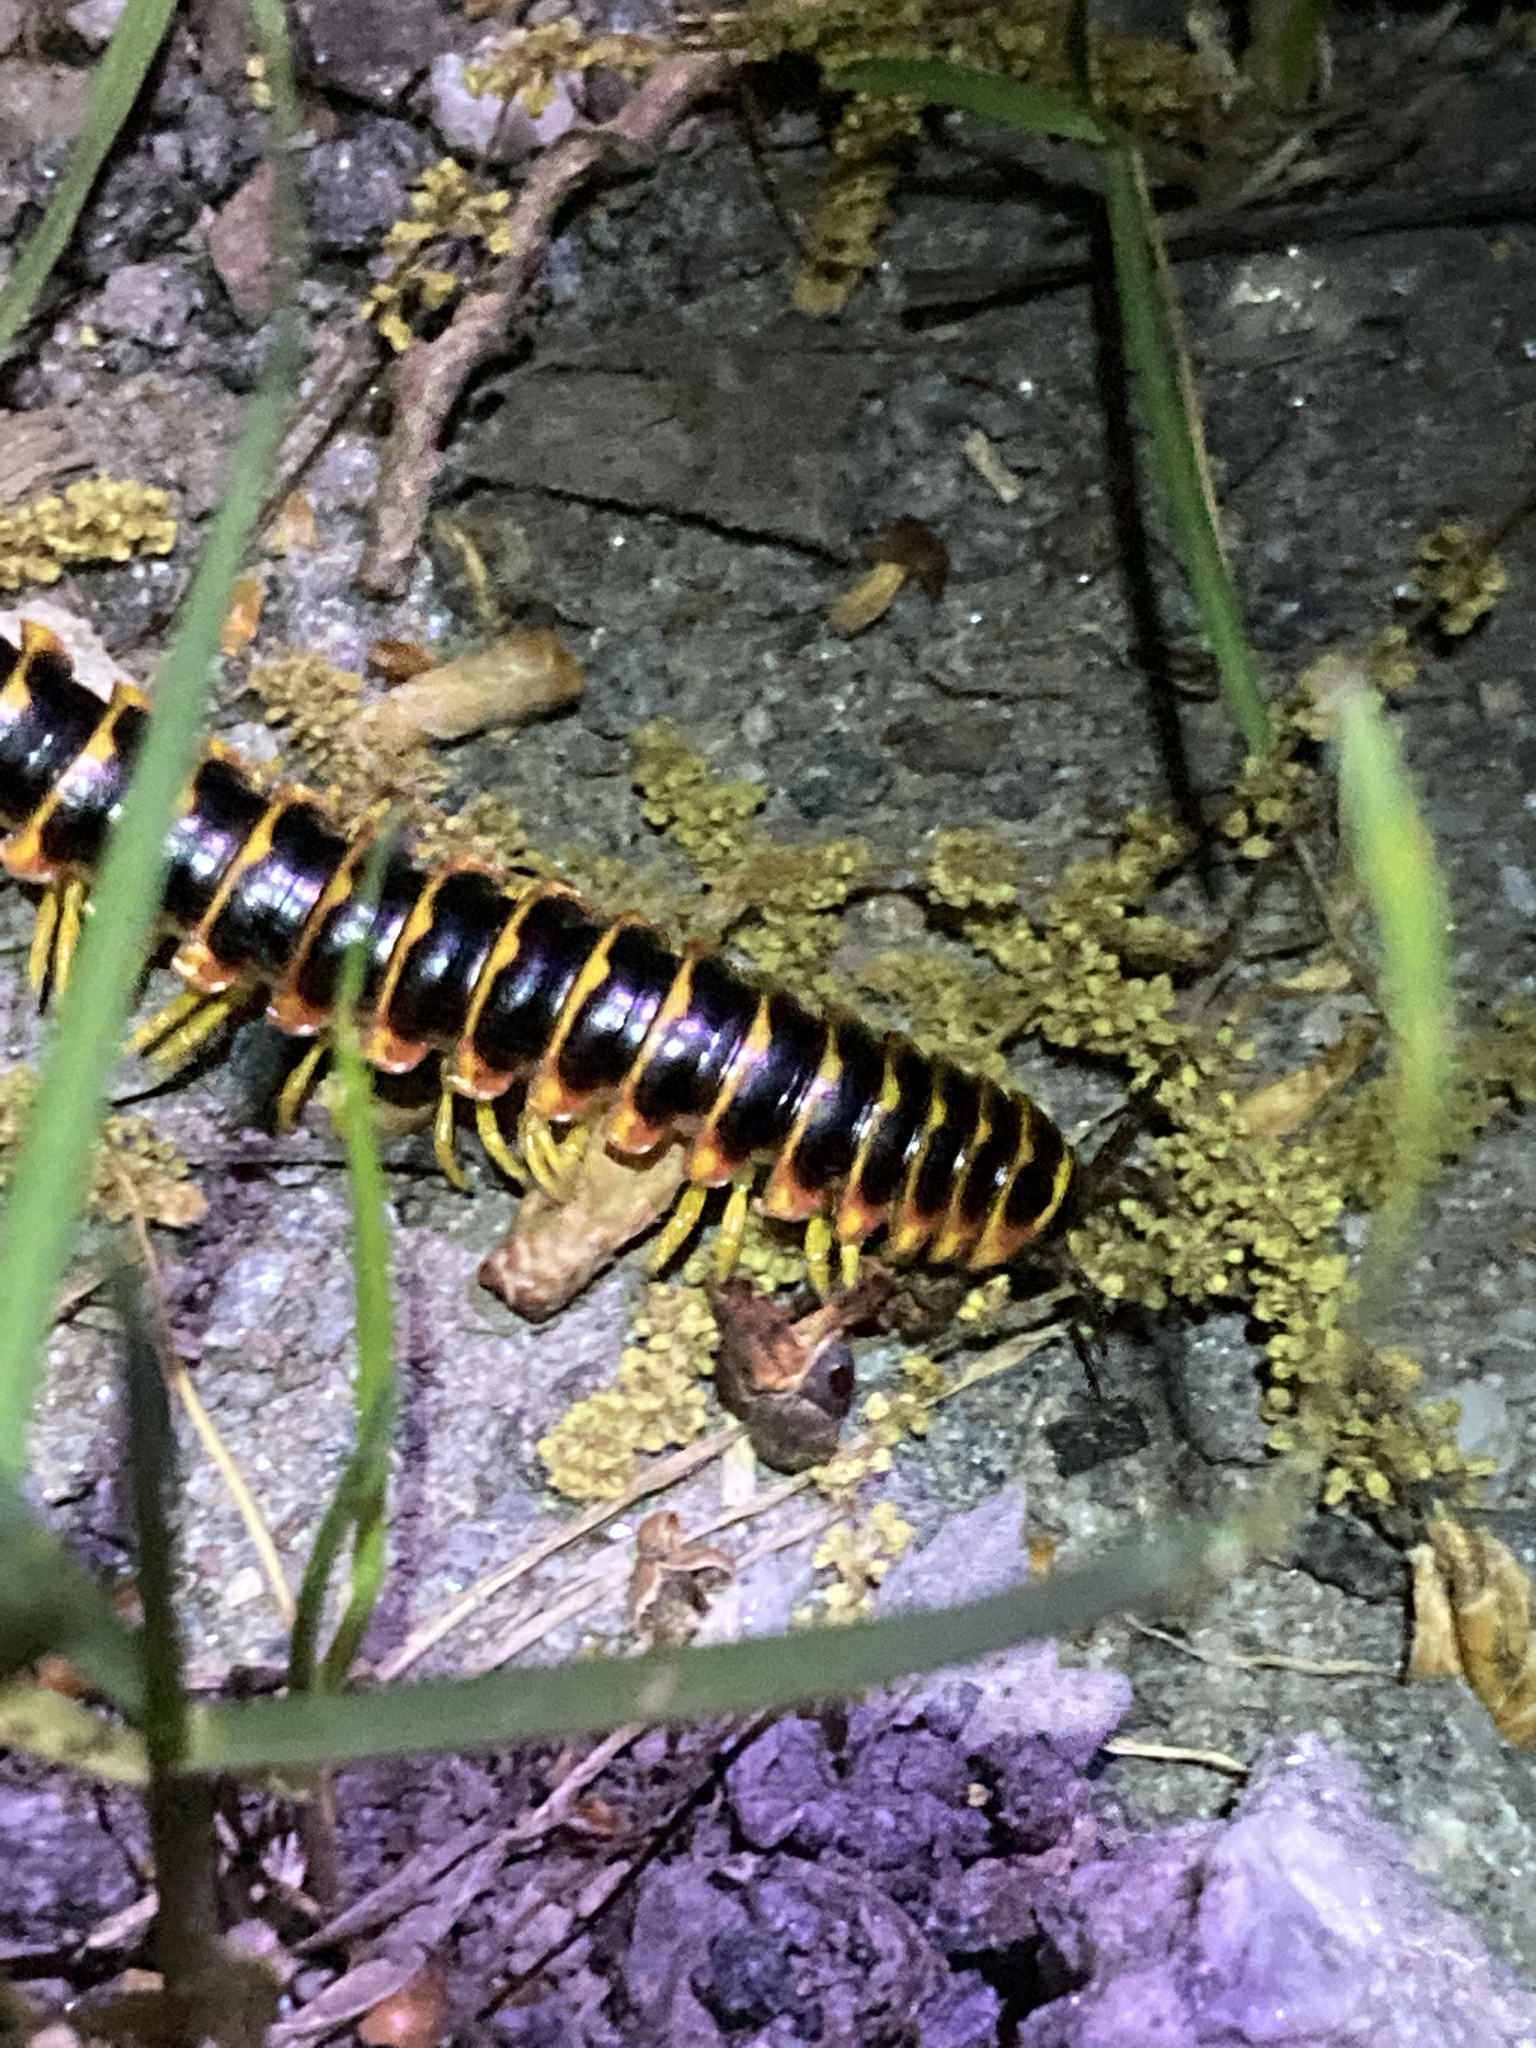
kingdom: Animalia
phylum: Arthropoda
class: Diplopoda
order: Polydesmida
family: Xystodesmidae
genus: Apheloria
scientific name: Apheloria virginiensis
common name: Black-and-gold flat millipede
